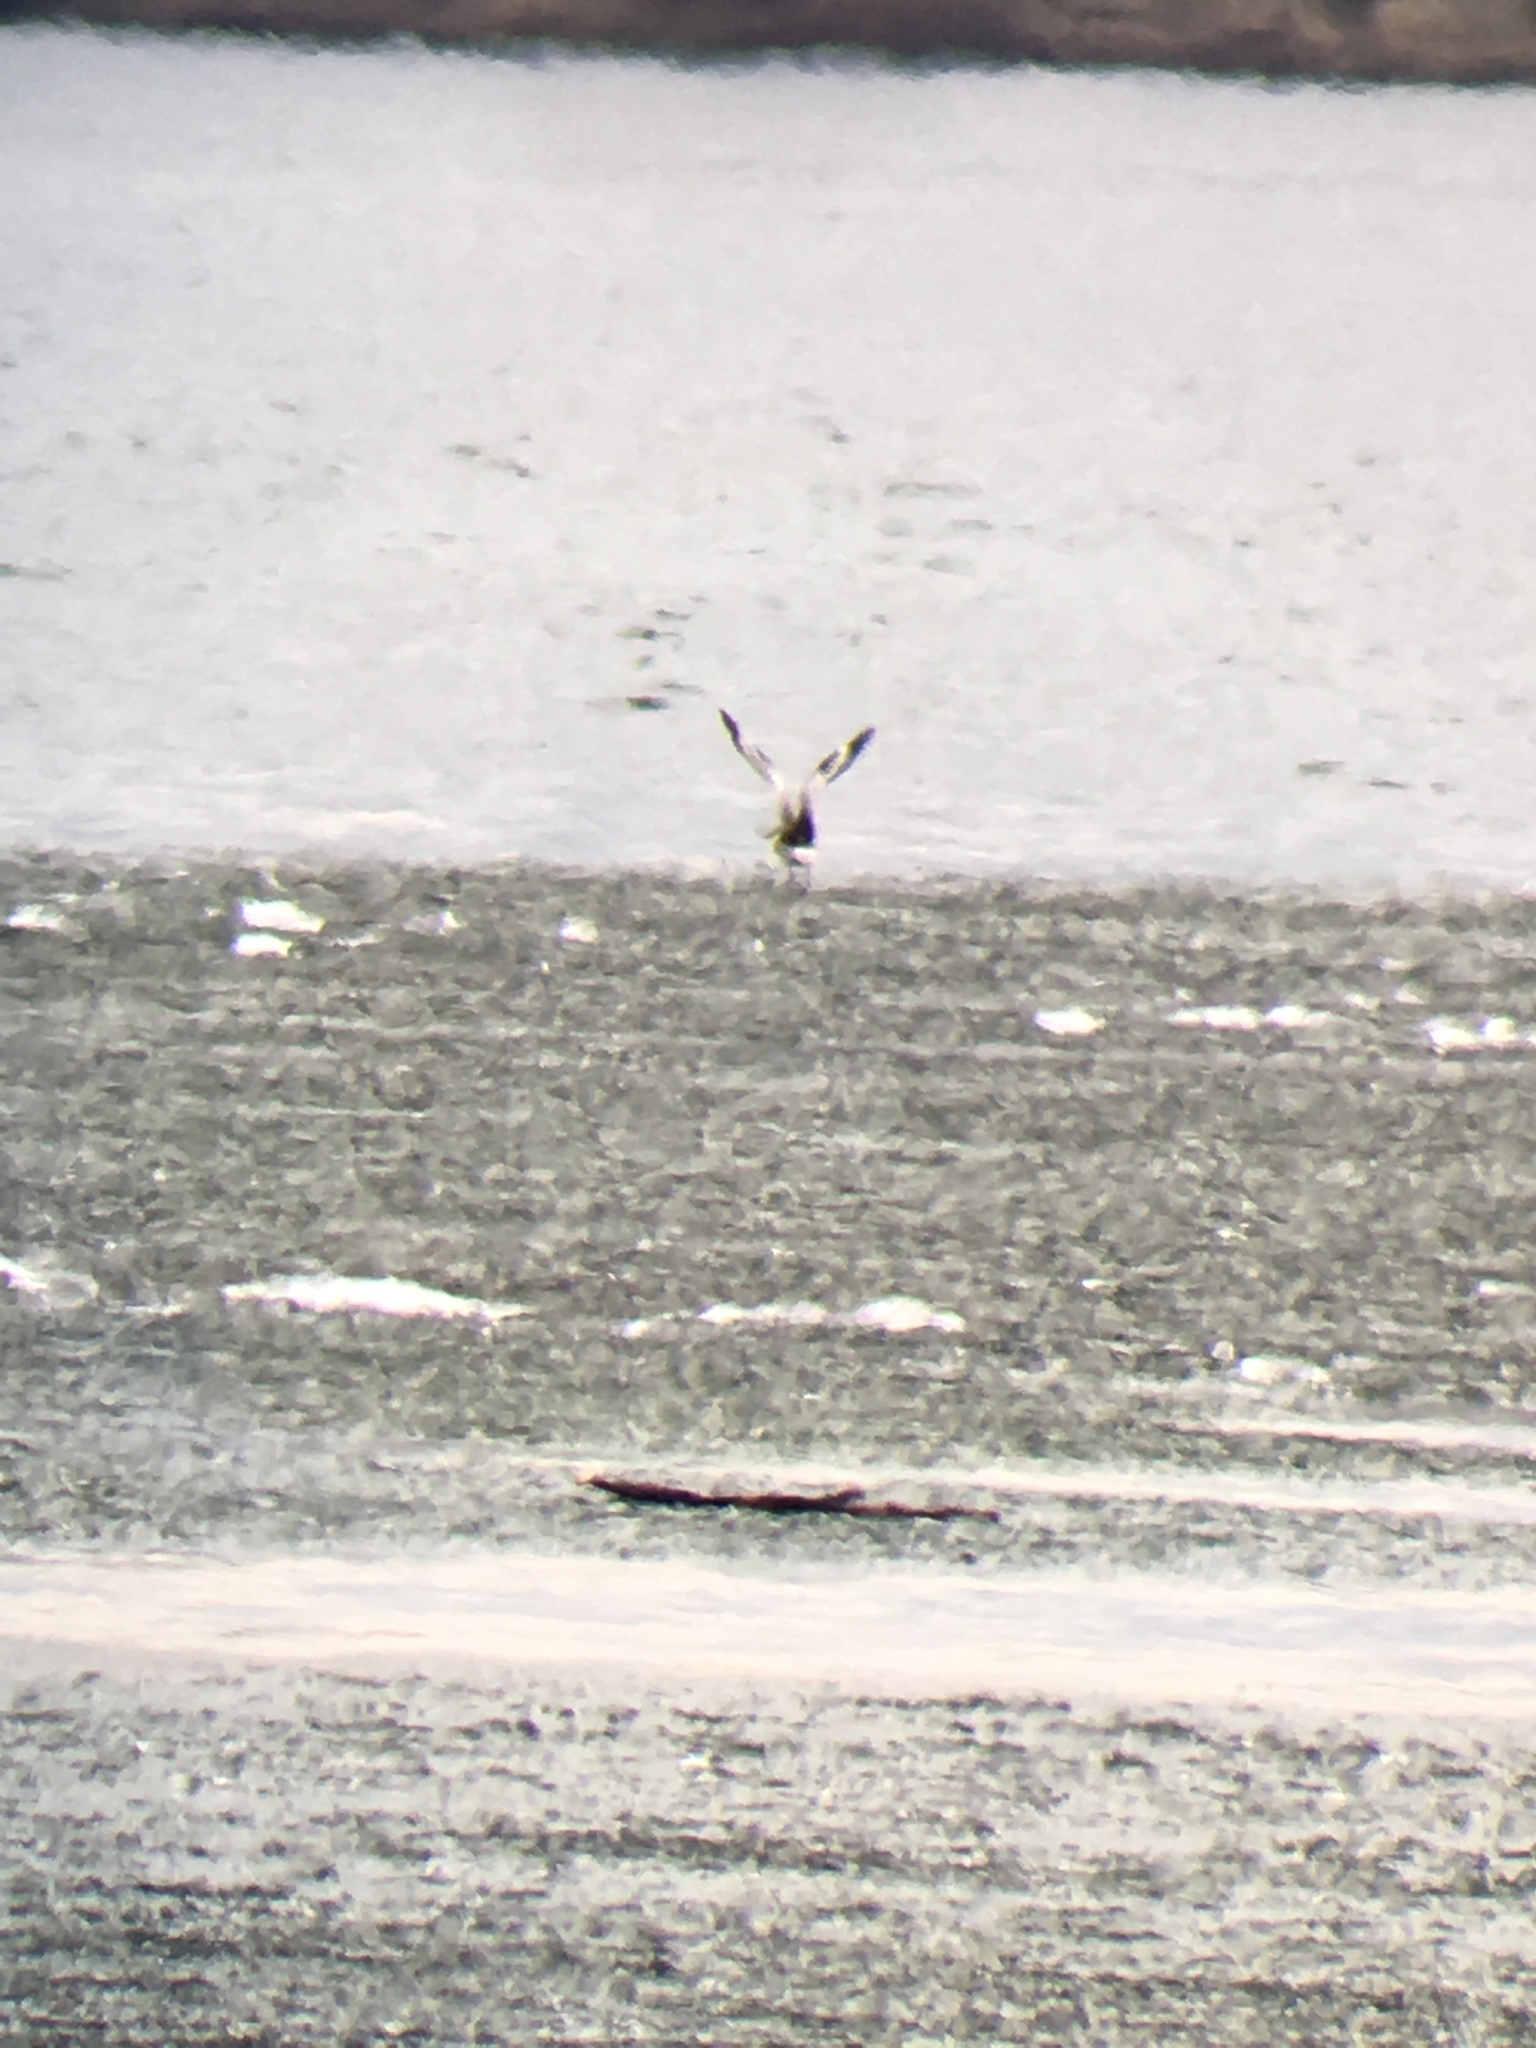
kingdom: Animalia
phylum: Chordata
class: Aves
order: Charadriiformes
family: Scolopacidae
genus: Tringa
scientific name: Tringa semipalmata
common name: Willet
